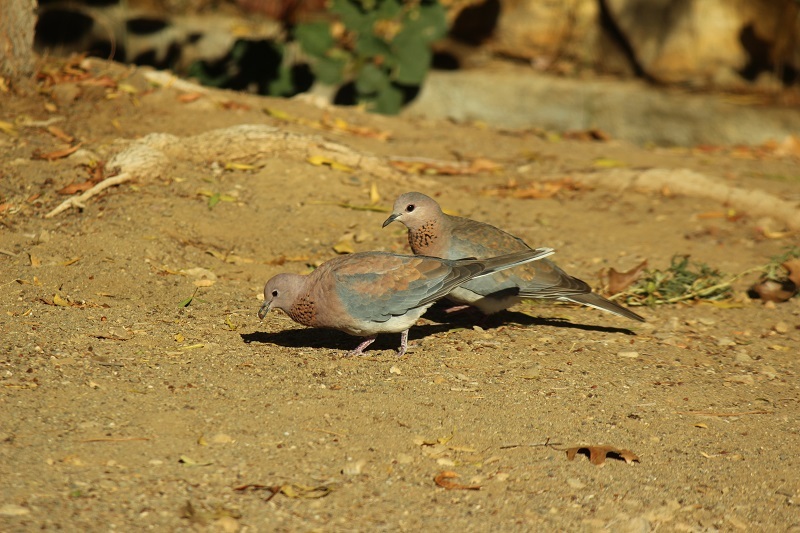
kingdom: Animalia
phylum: Chordata
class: Aves
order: Columbiformes
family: Columbidae
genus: Spilopelia
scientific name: Spilopelia senegalensis
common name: Laughing dove
